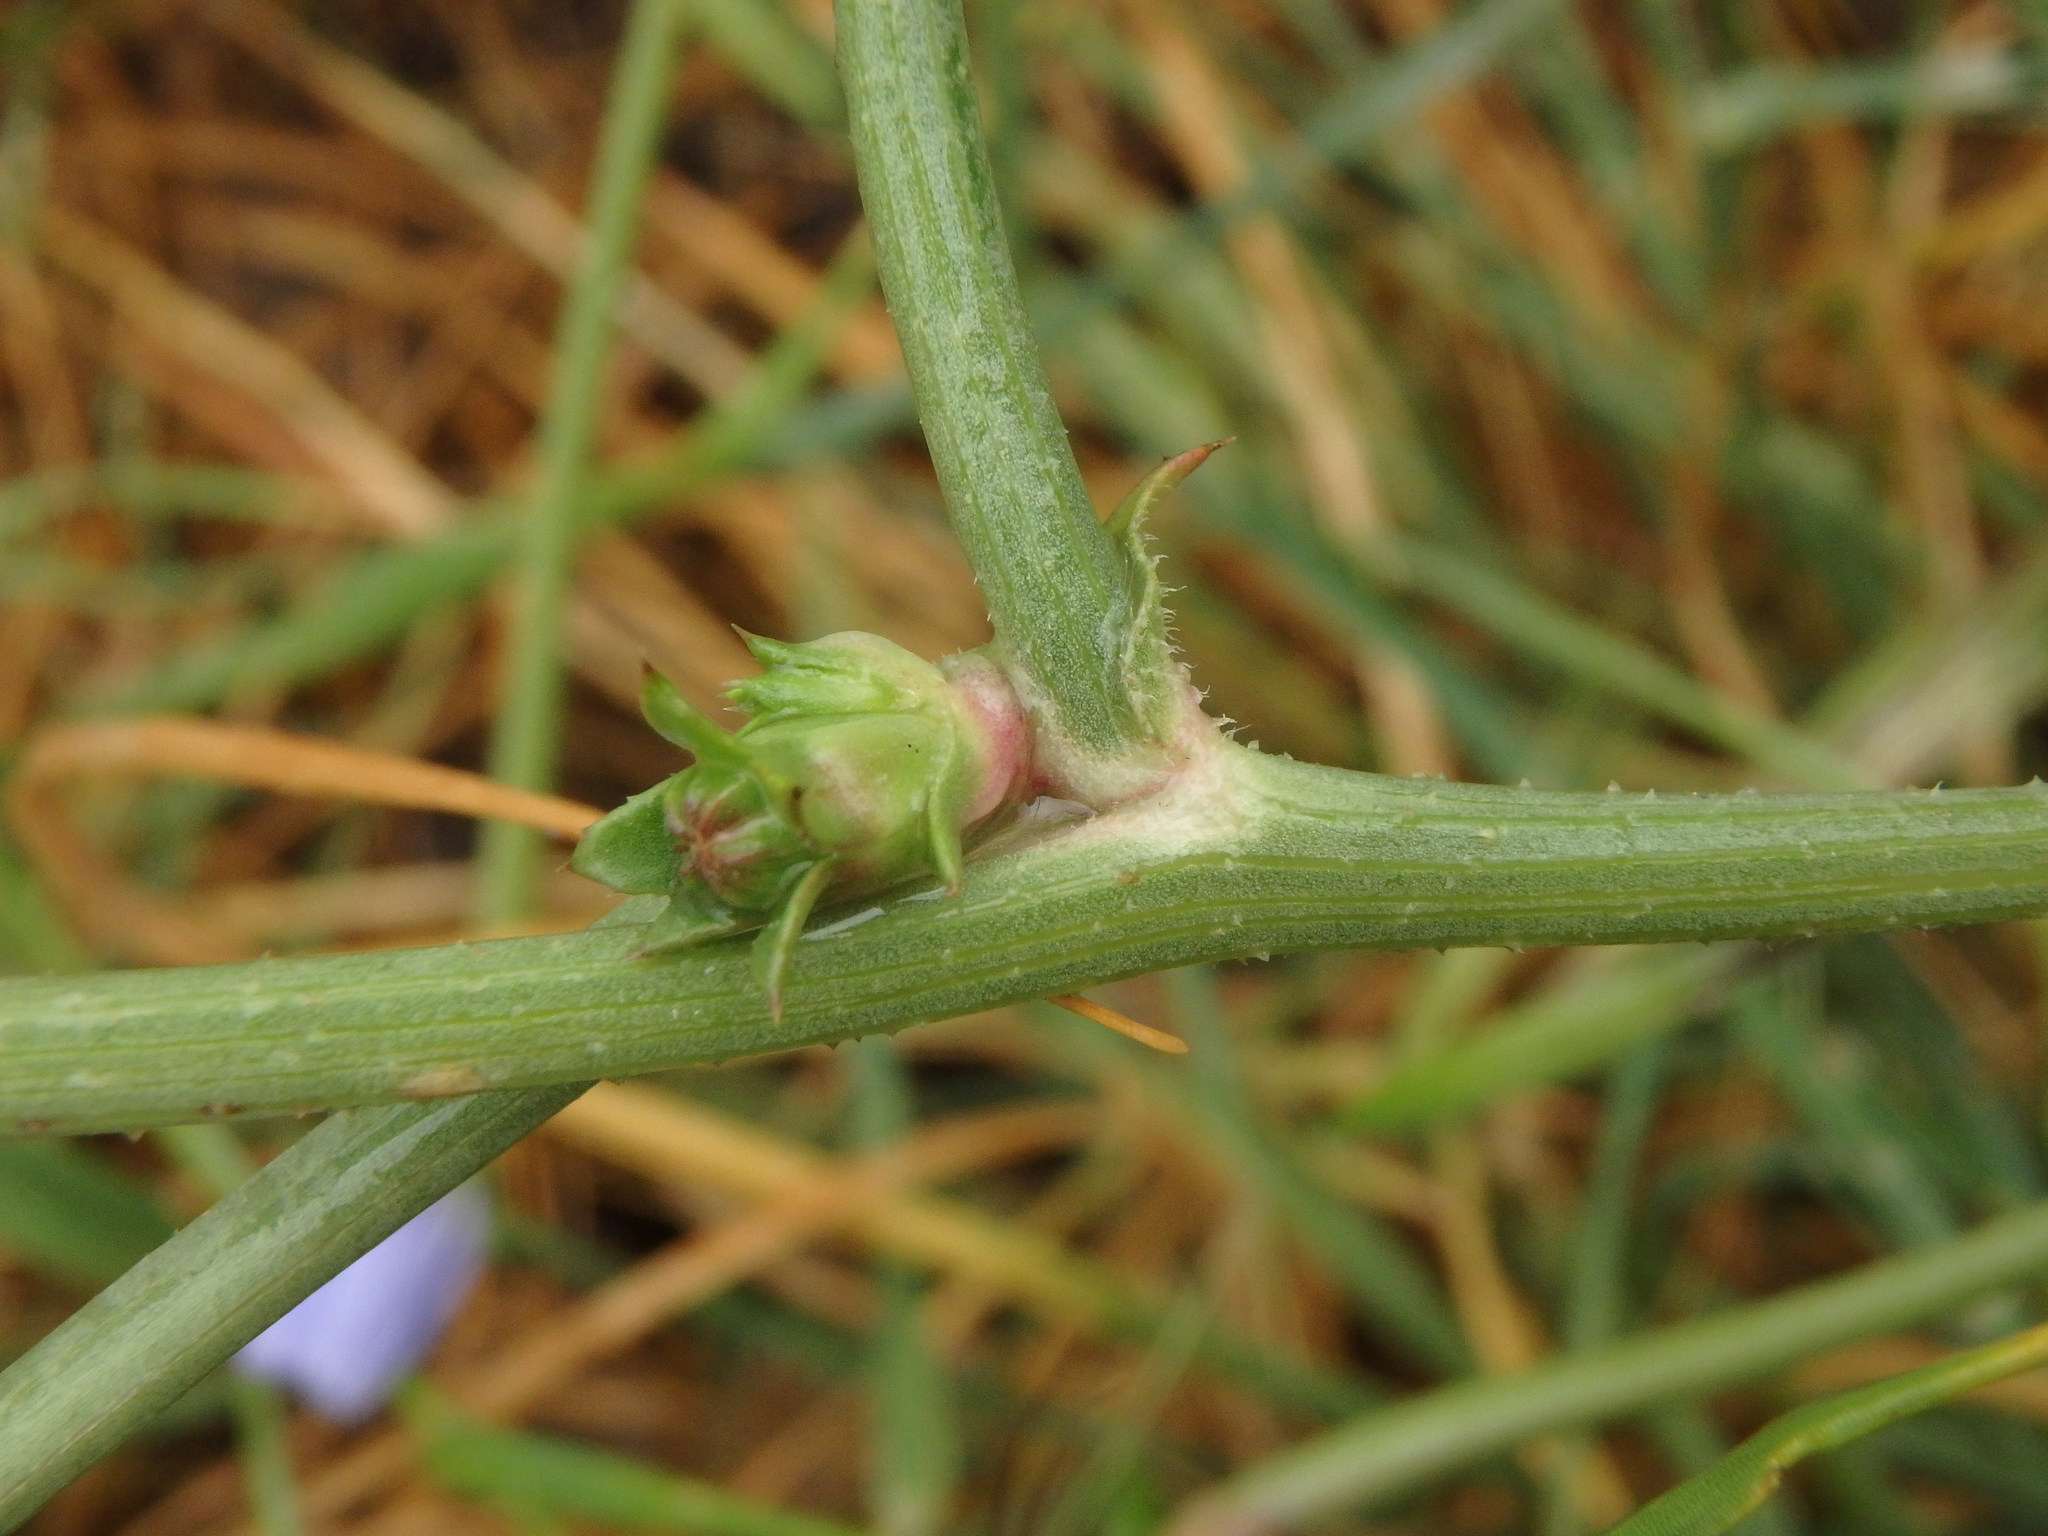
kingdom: Plantae
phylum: Tracheophyta
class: Magnoliopsida
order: Asterales
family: Asteraceae
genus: Cichorium
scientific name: Cichorium intybus
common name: Chicory
